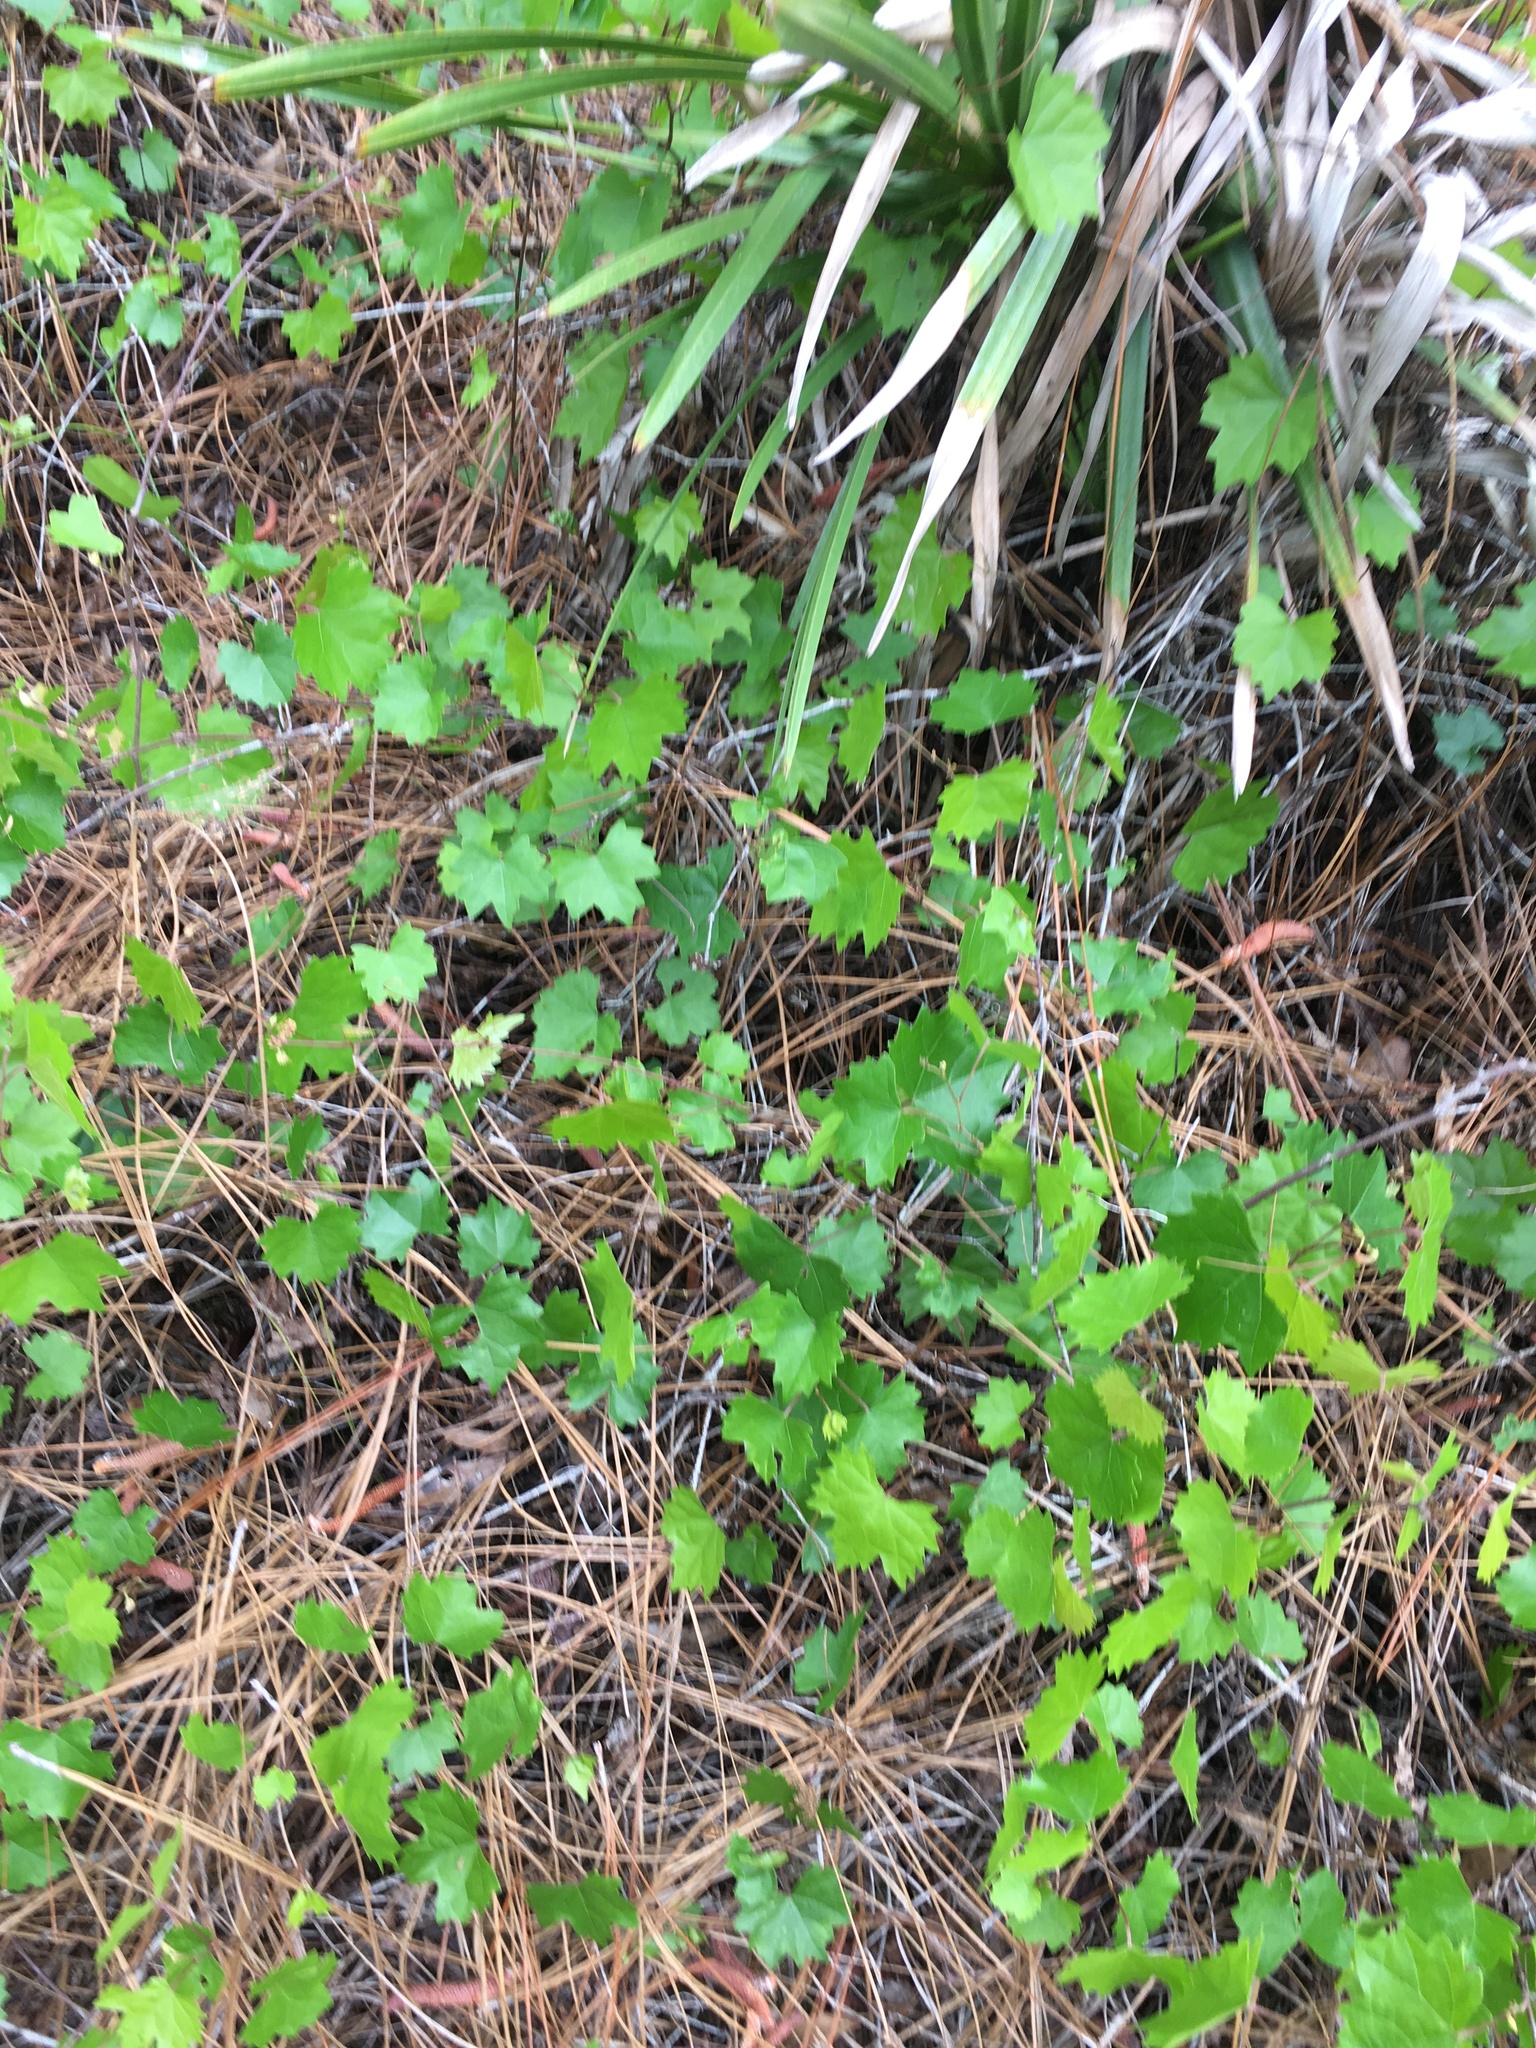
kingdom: Plantae
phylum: Tracheophyta
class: Magnoliopsida
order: Vitales
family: Vitaceae
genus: Vitis
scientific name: Vitis rotundifolia
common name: Muscadine grape
